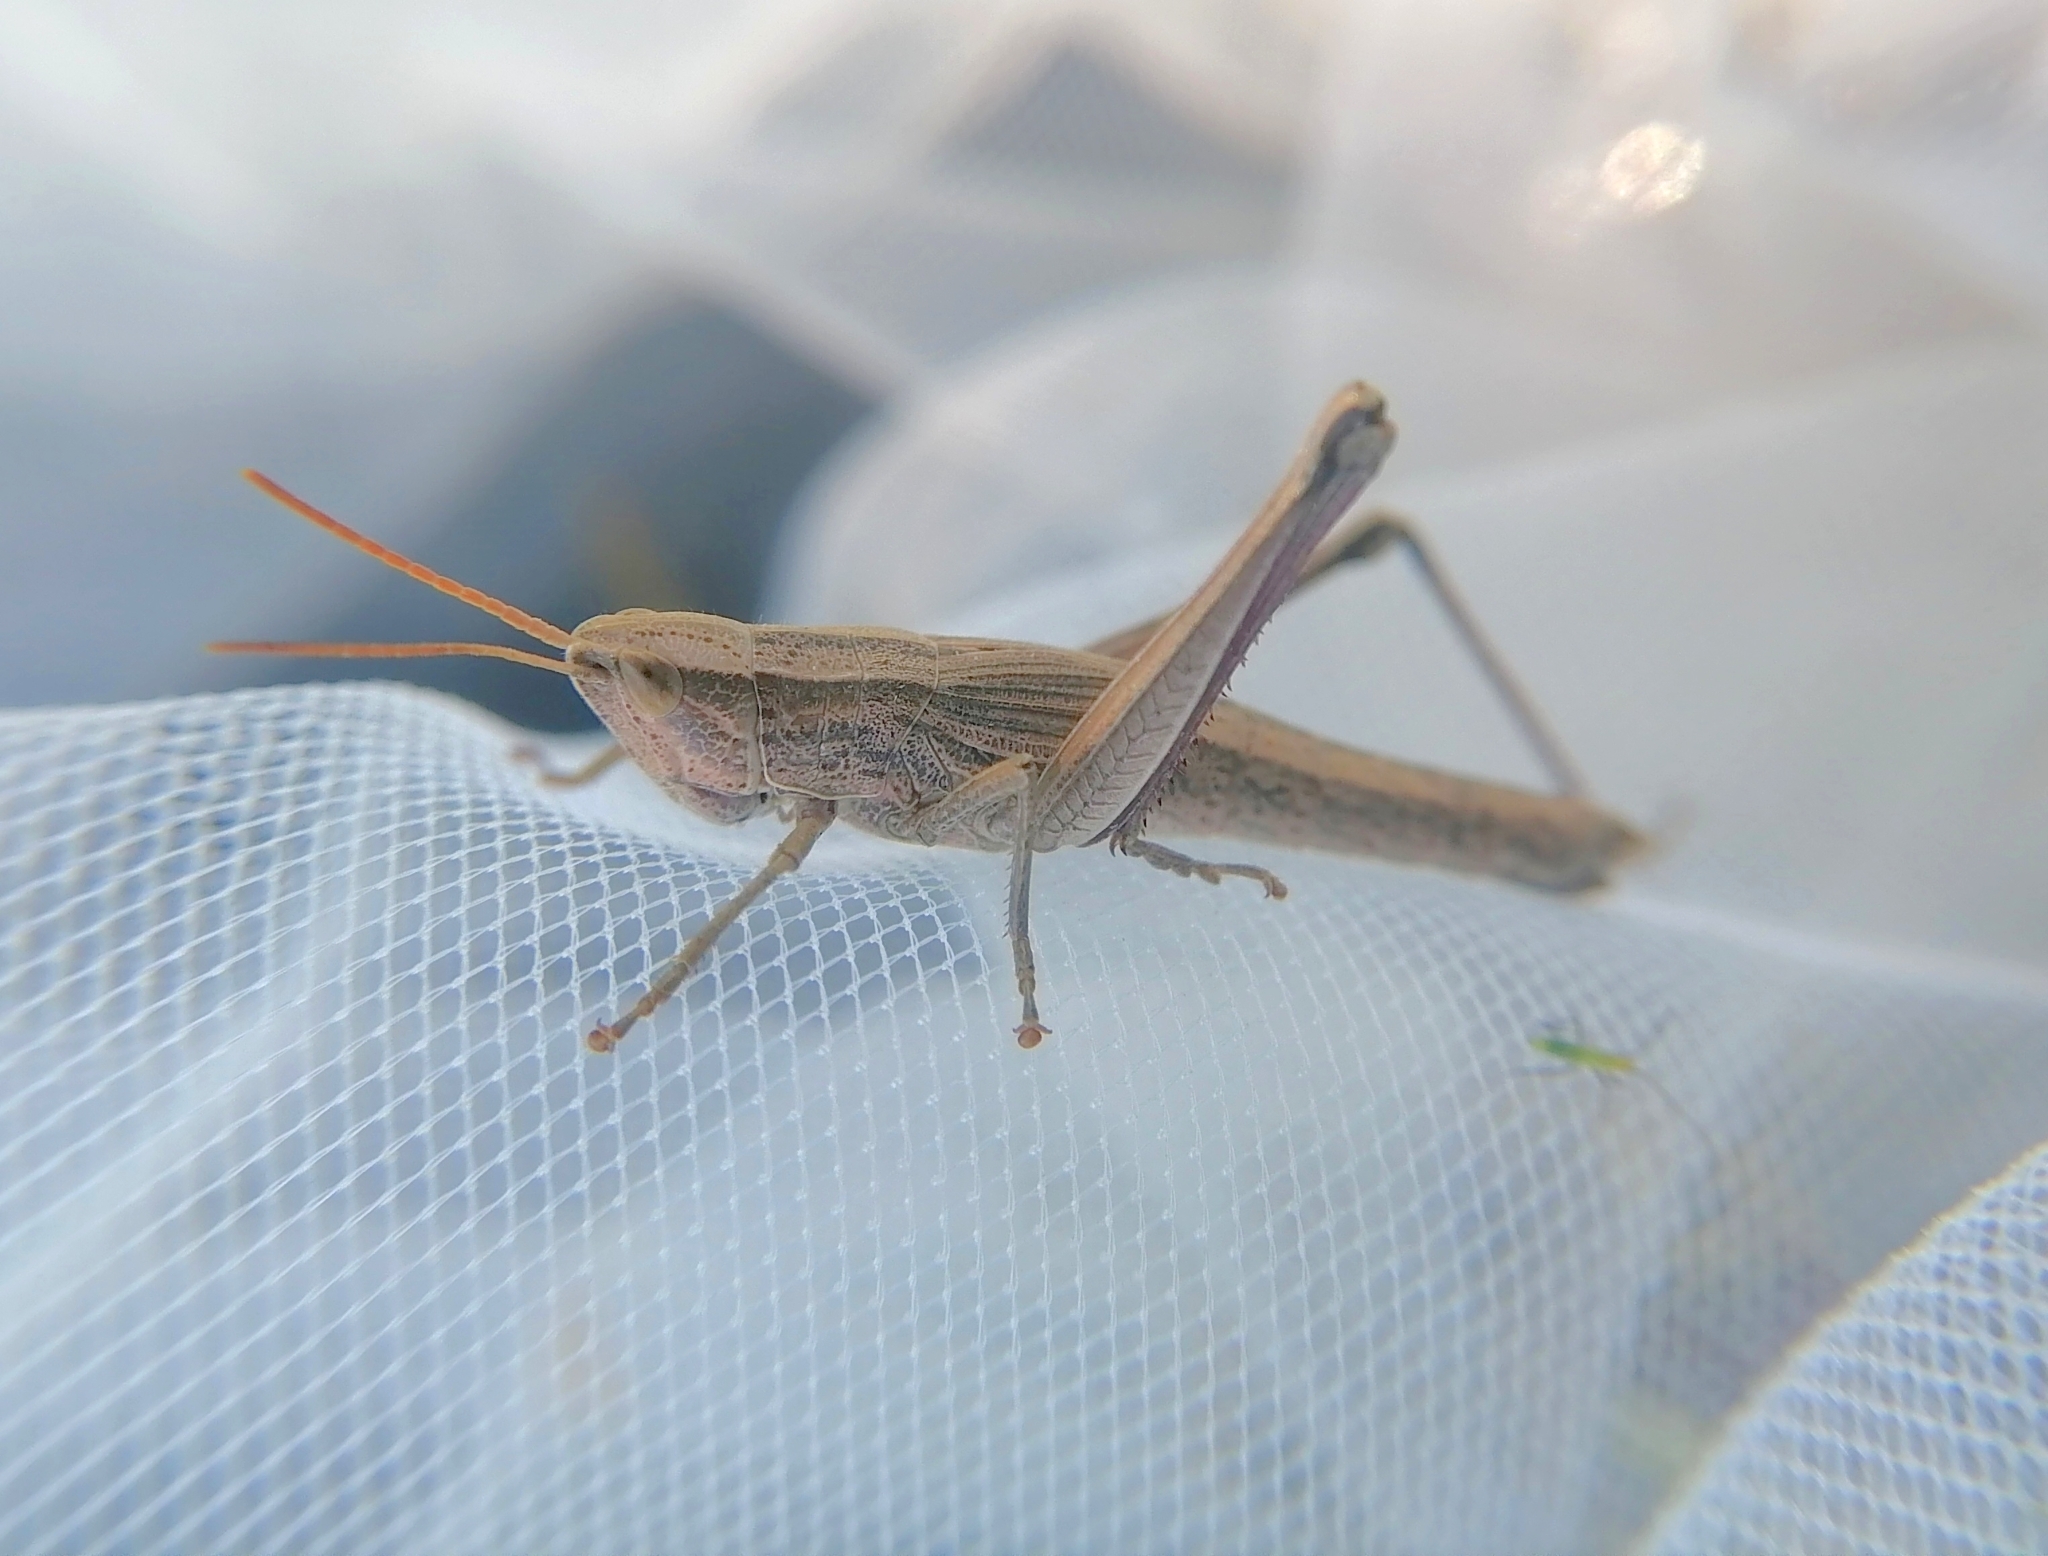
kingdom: Animalia
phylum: Arthropoda
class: Insecta
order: Orthoptera
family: Acrididae
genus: Chrysochraon
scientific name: Chrysochraon dispar
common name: Large gold grasshopper
